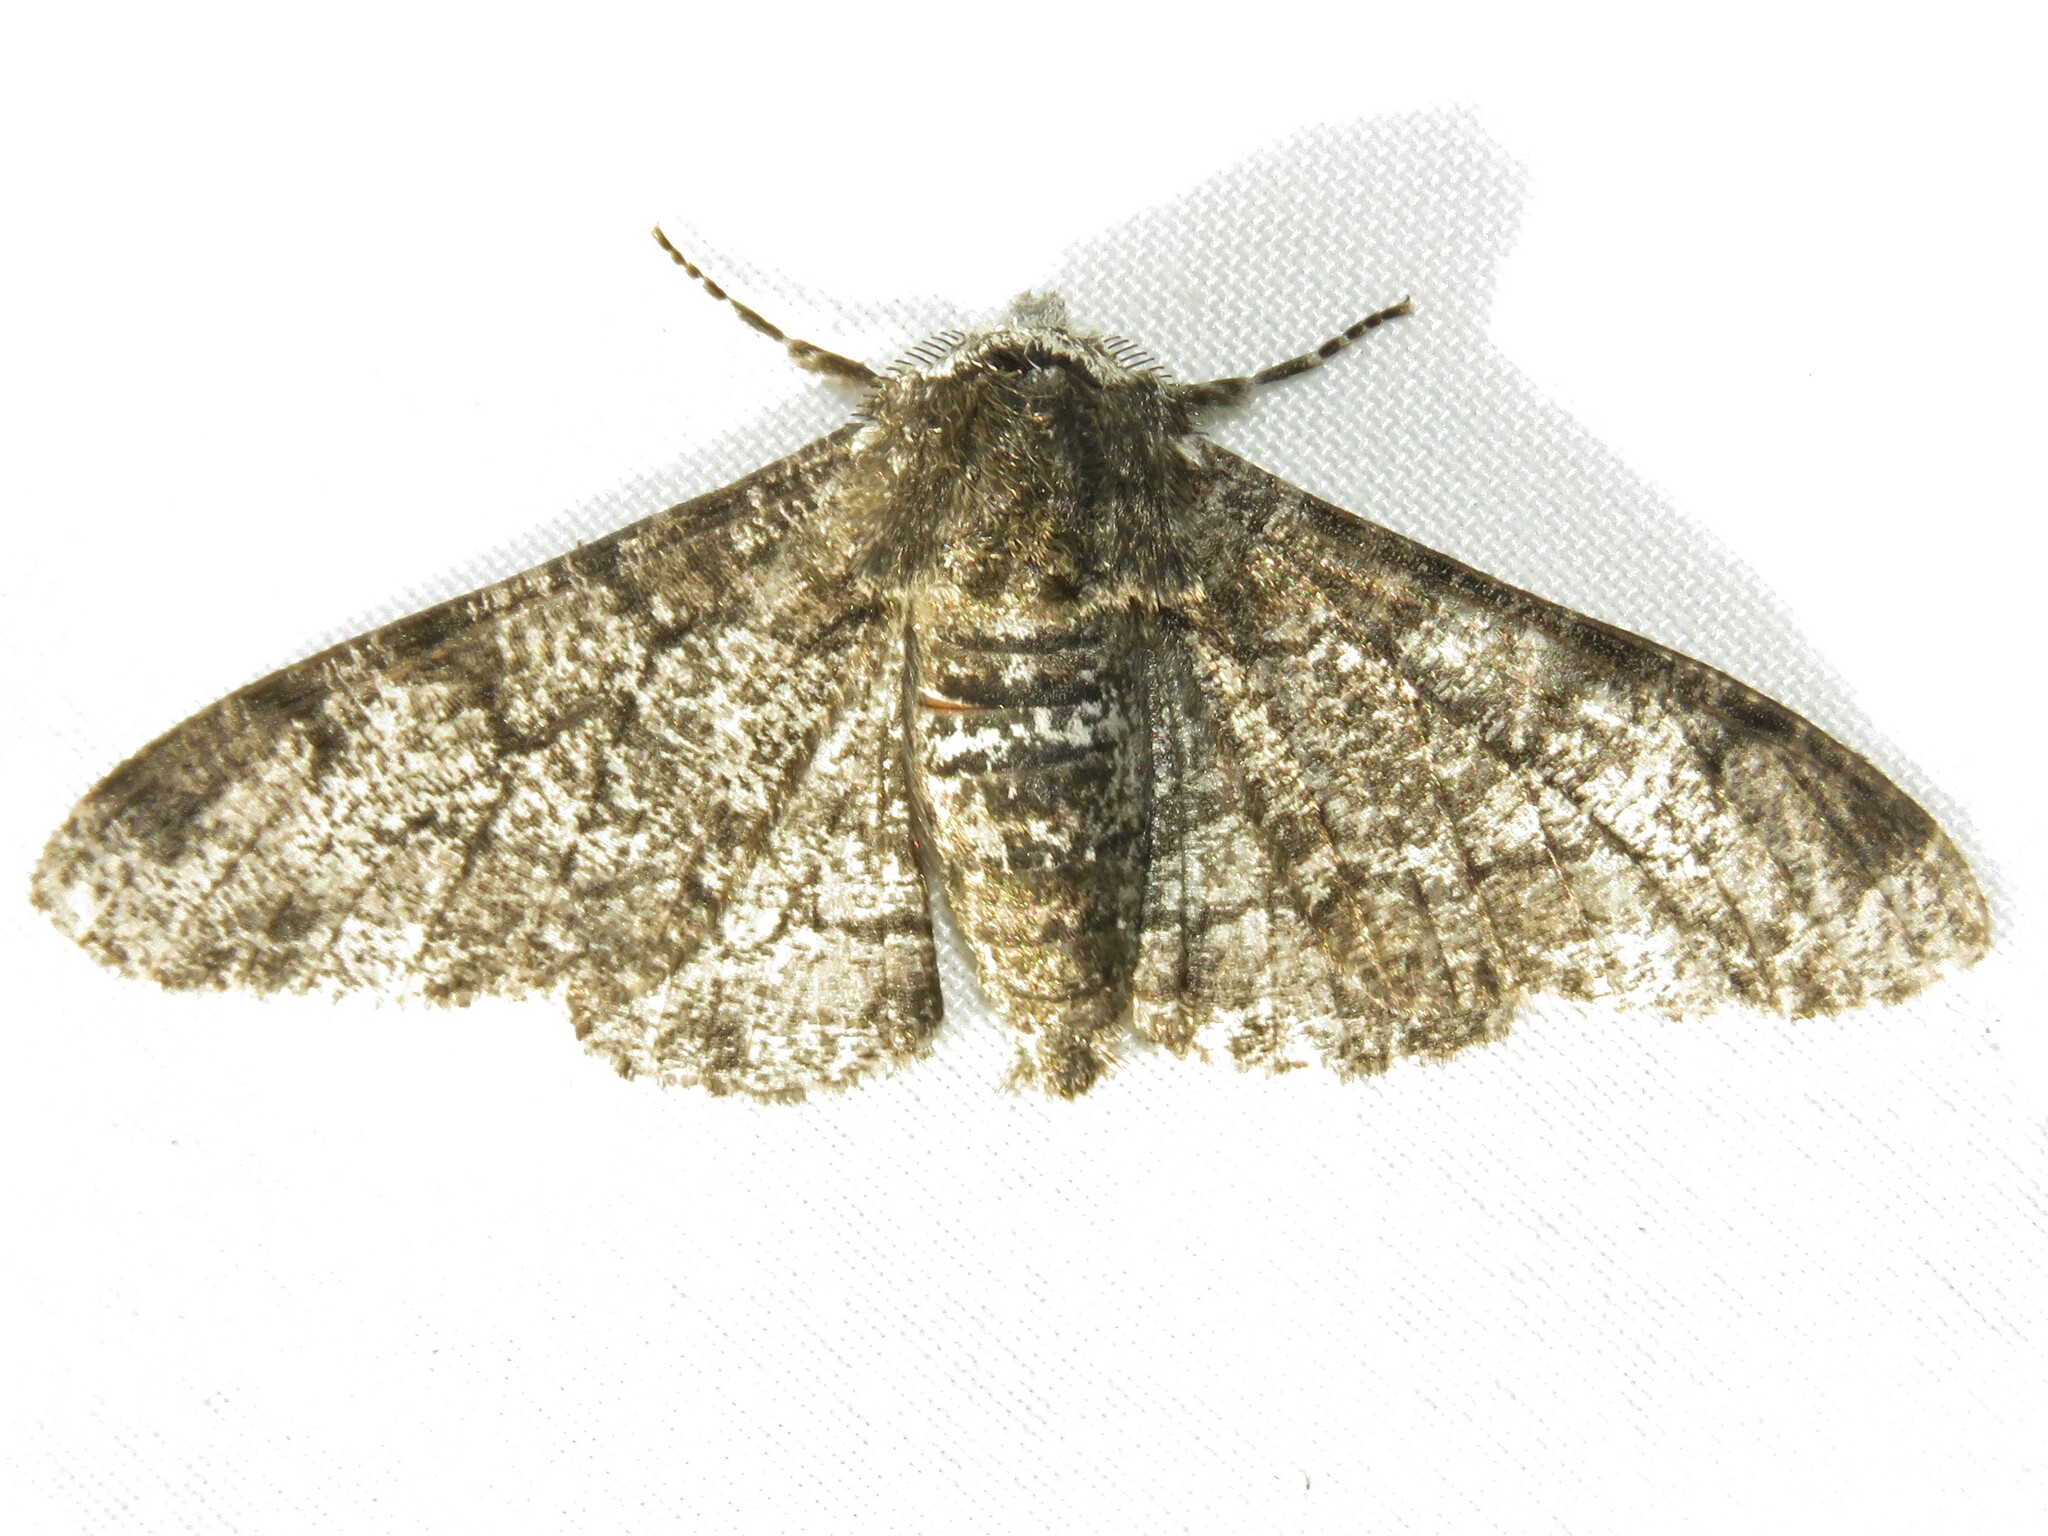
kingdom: Animalia
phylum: Arthropoda
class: Insecta
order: Lepidoptera
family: Geometridae
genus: Biston
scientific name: Biston betularia
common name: Peppered moth
